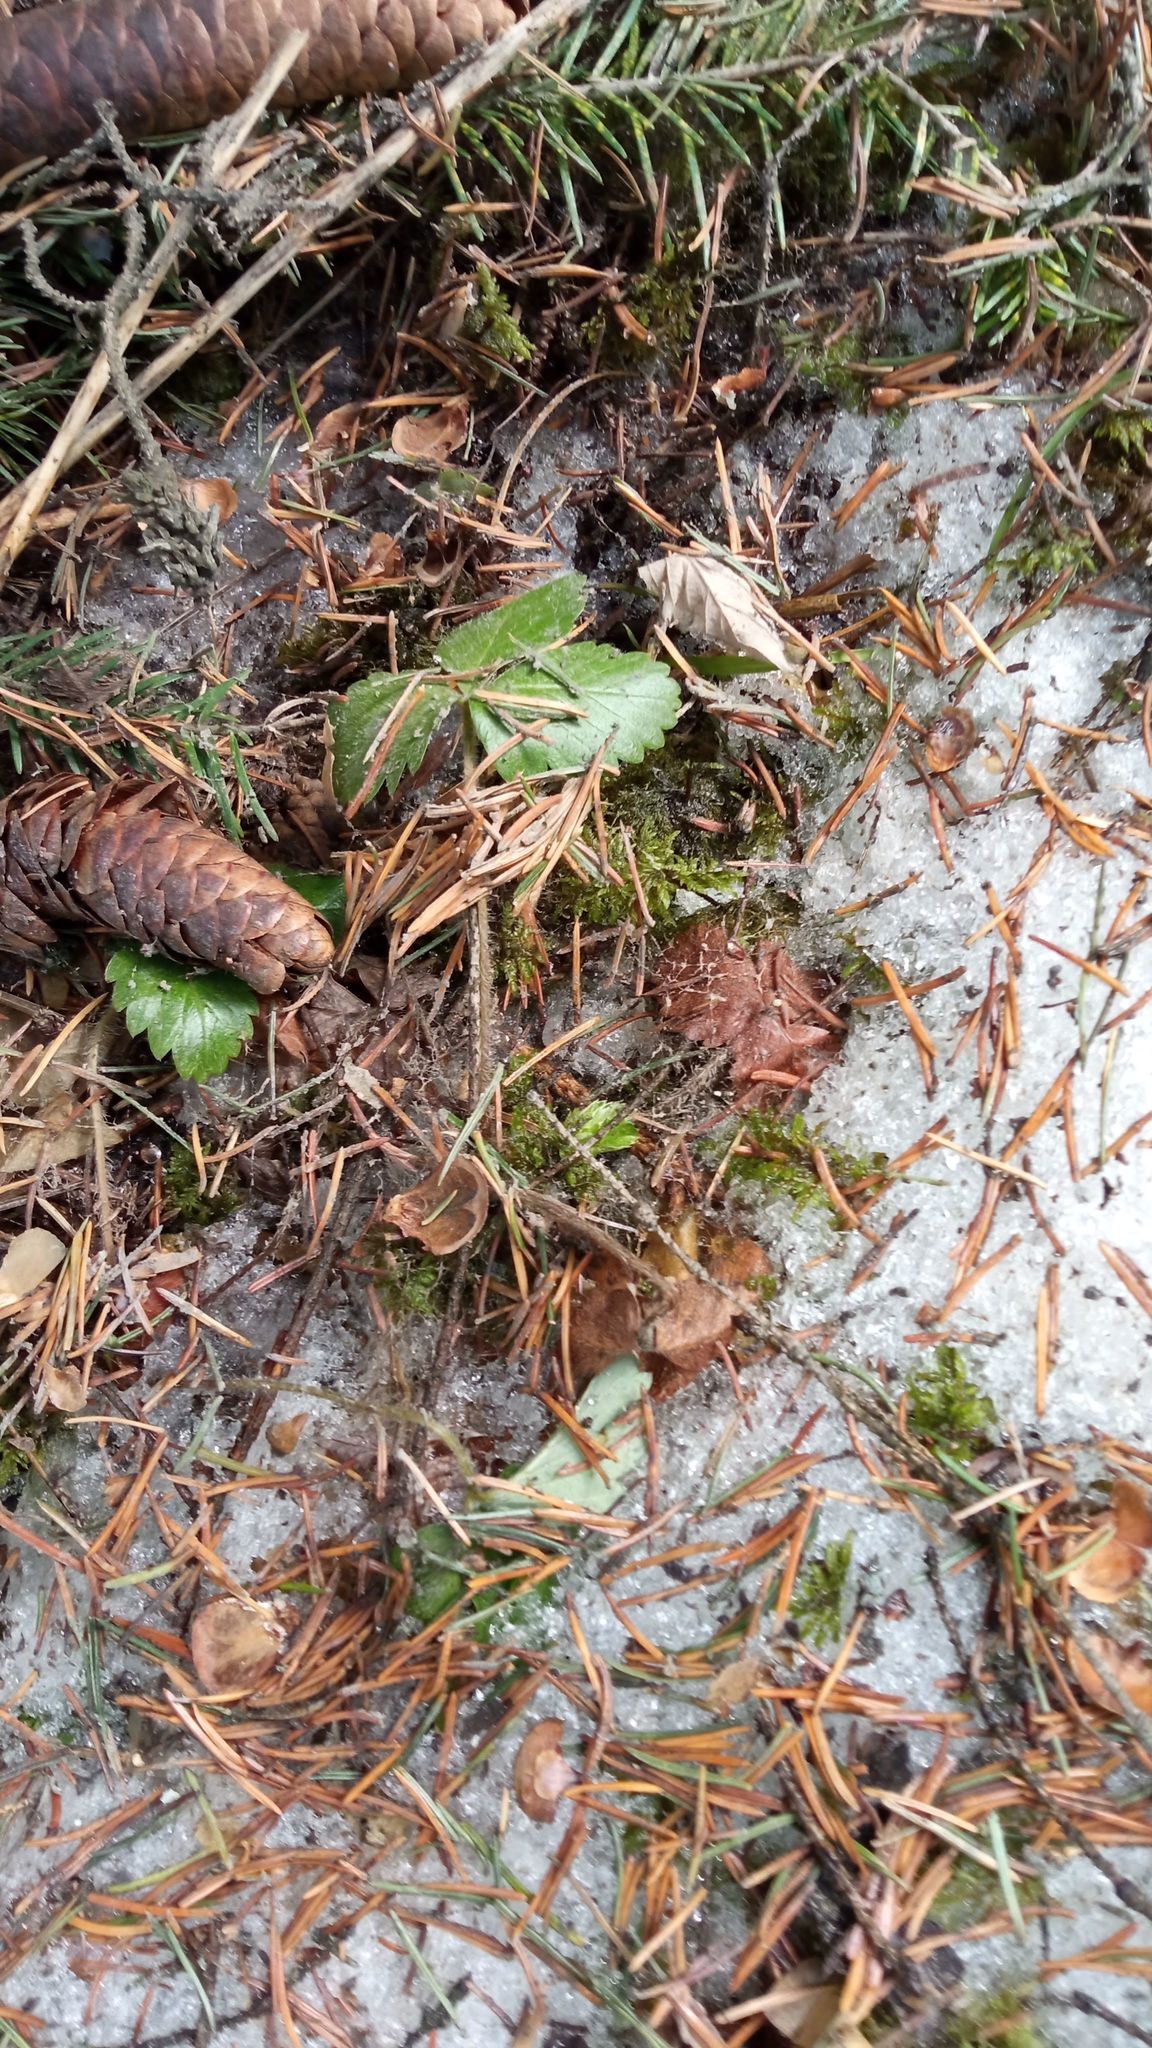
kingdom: Plantae
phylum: Tracheophyta
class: Magnoliopsida
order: Rosales
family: Rosaceae
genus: Fragaria
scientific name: Fragaria vesca
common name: Wild strawberry
